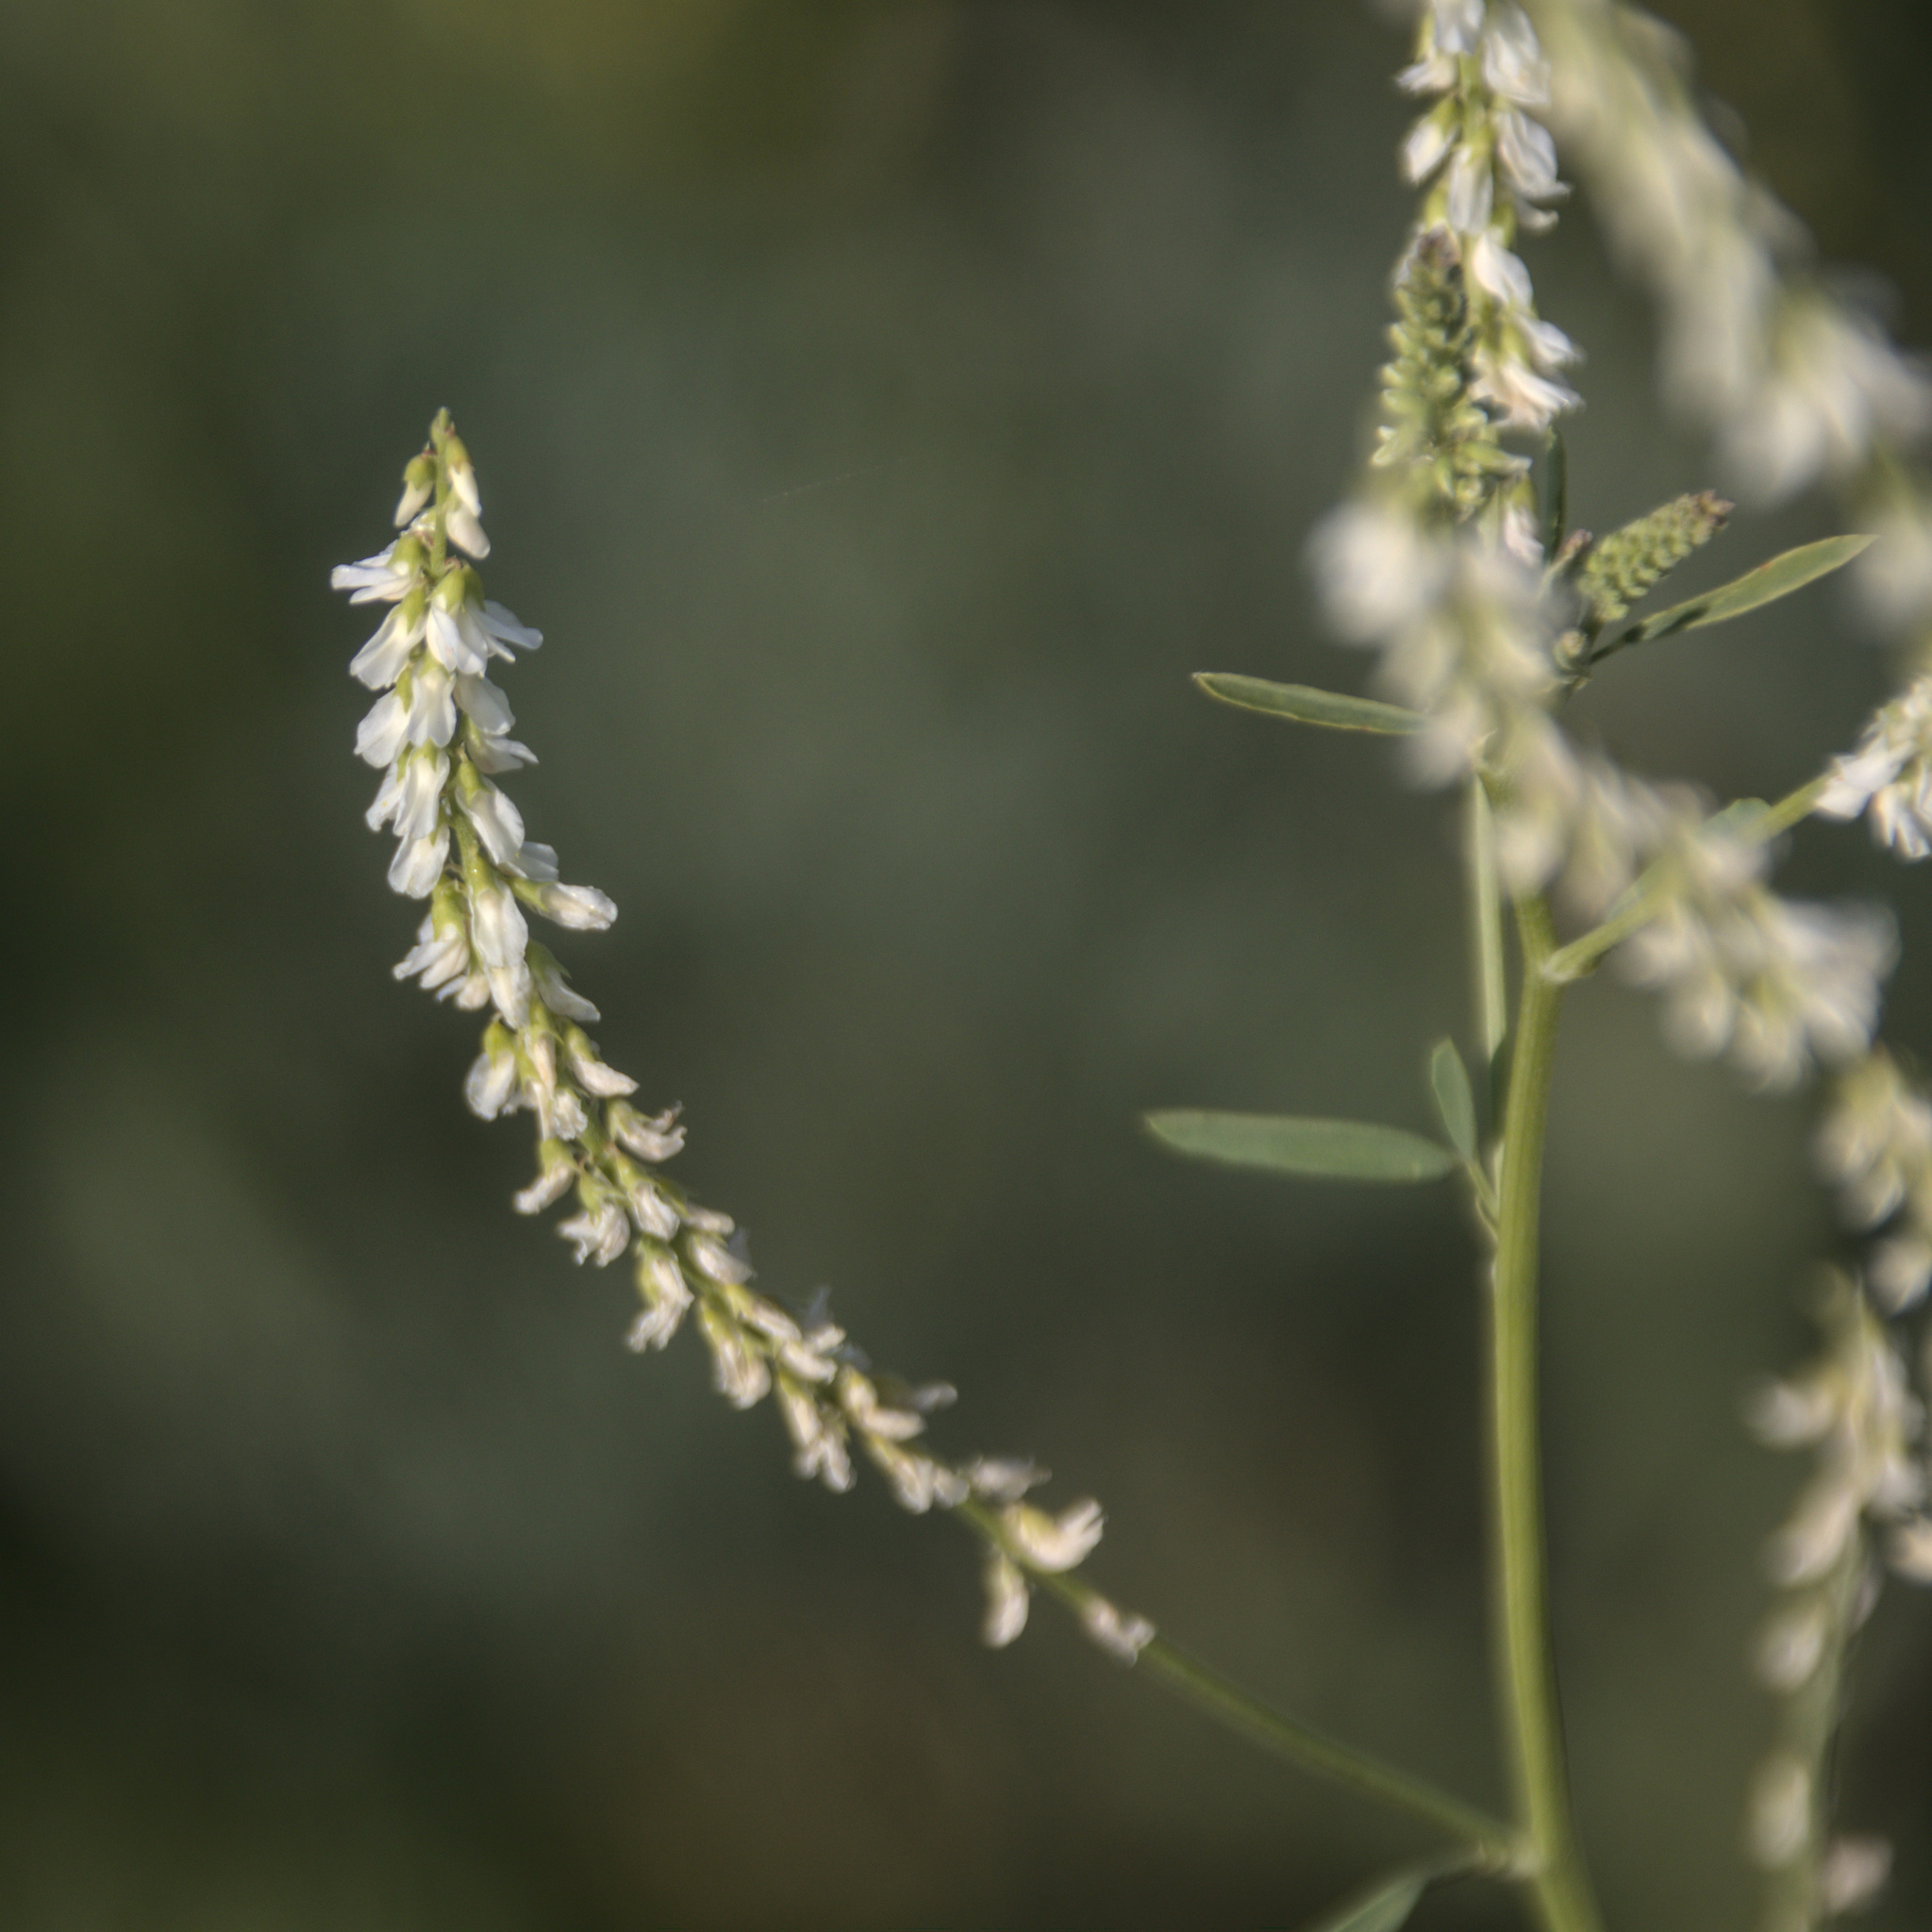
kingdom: Plantae
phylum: Tracheophyta
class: Magnoliopsida
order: Fabales
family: Fabaceae
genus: Melilotus
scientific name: Melilotus albus
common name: White melilot
